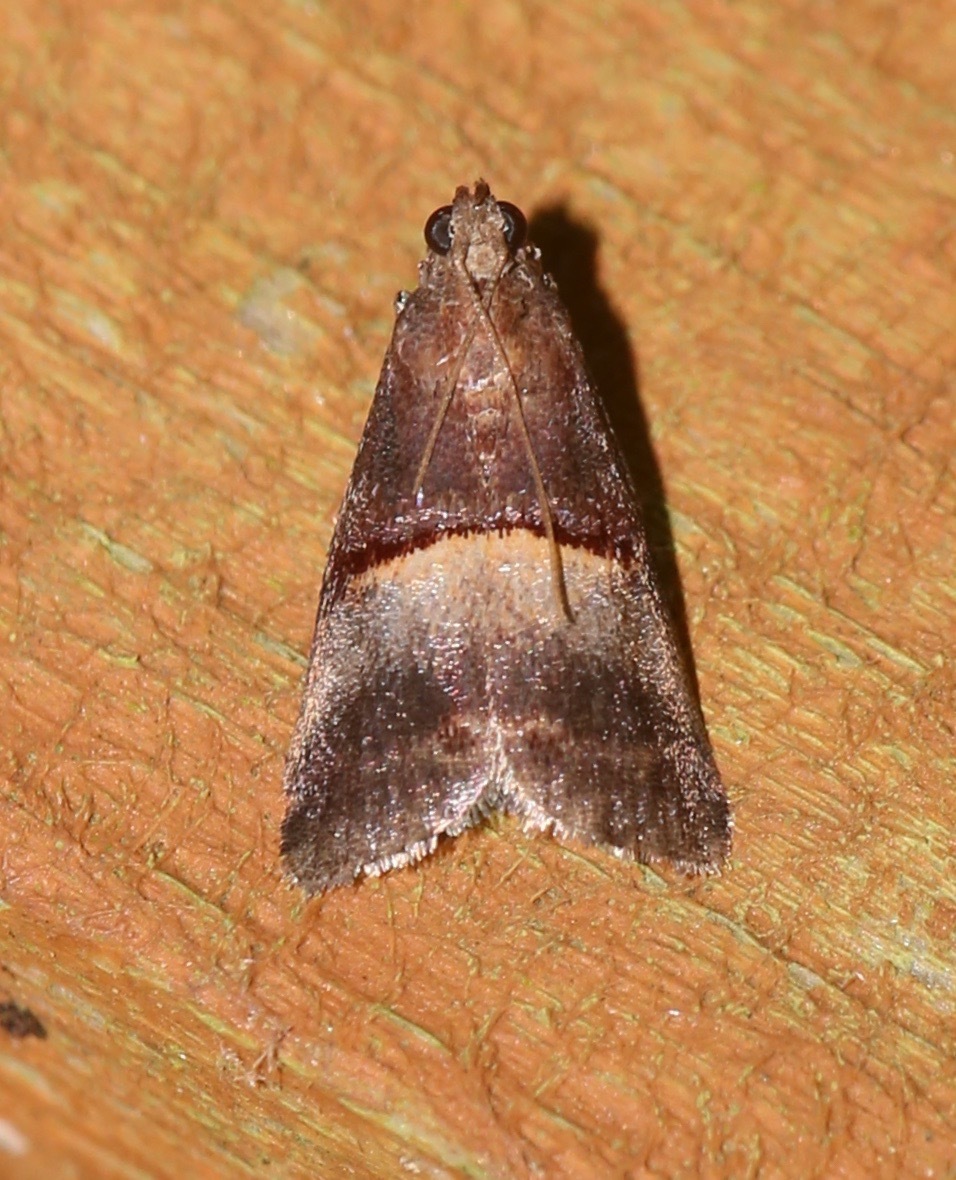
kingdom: Animalia
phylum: Arthropoda
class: Insecta
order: Lepidoptera
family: Pyralidae
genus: Acrobasis
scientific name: Acrobasis exsulella
